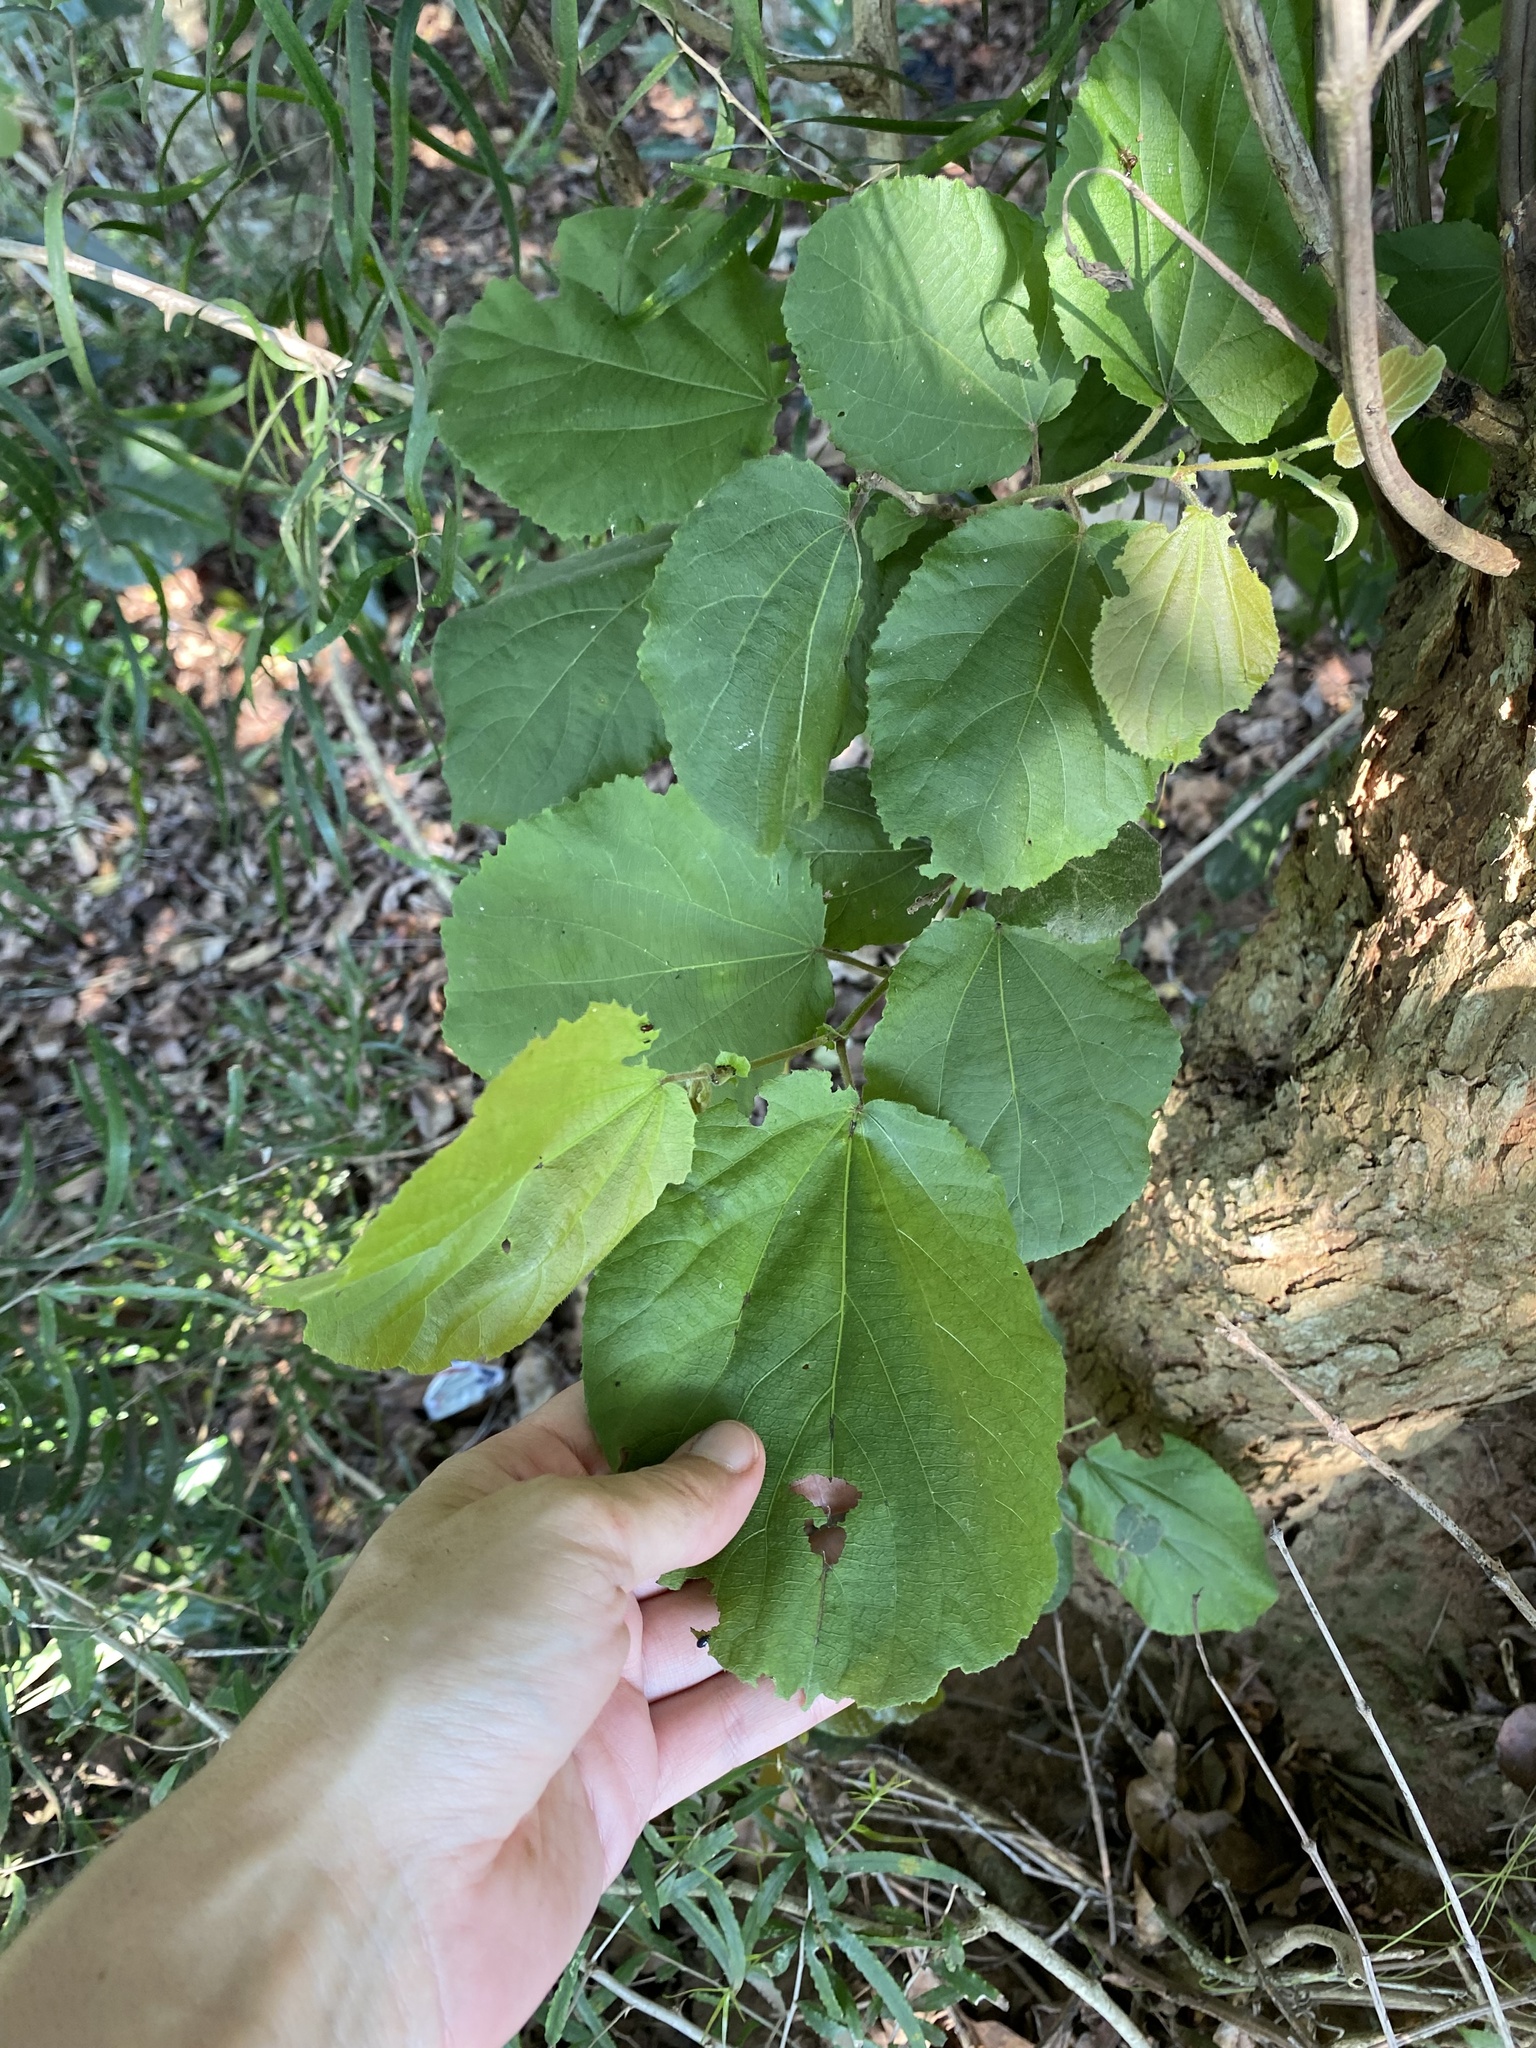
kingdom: Plantae
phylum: Tracheophyta
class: Magnoliopsida
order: Malpighiales
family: Salicaceae
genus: Trimeria
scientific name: Trimeria grandifolia
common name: Wild mulberry
